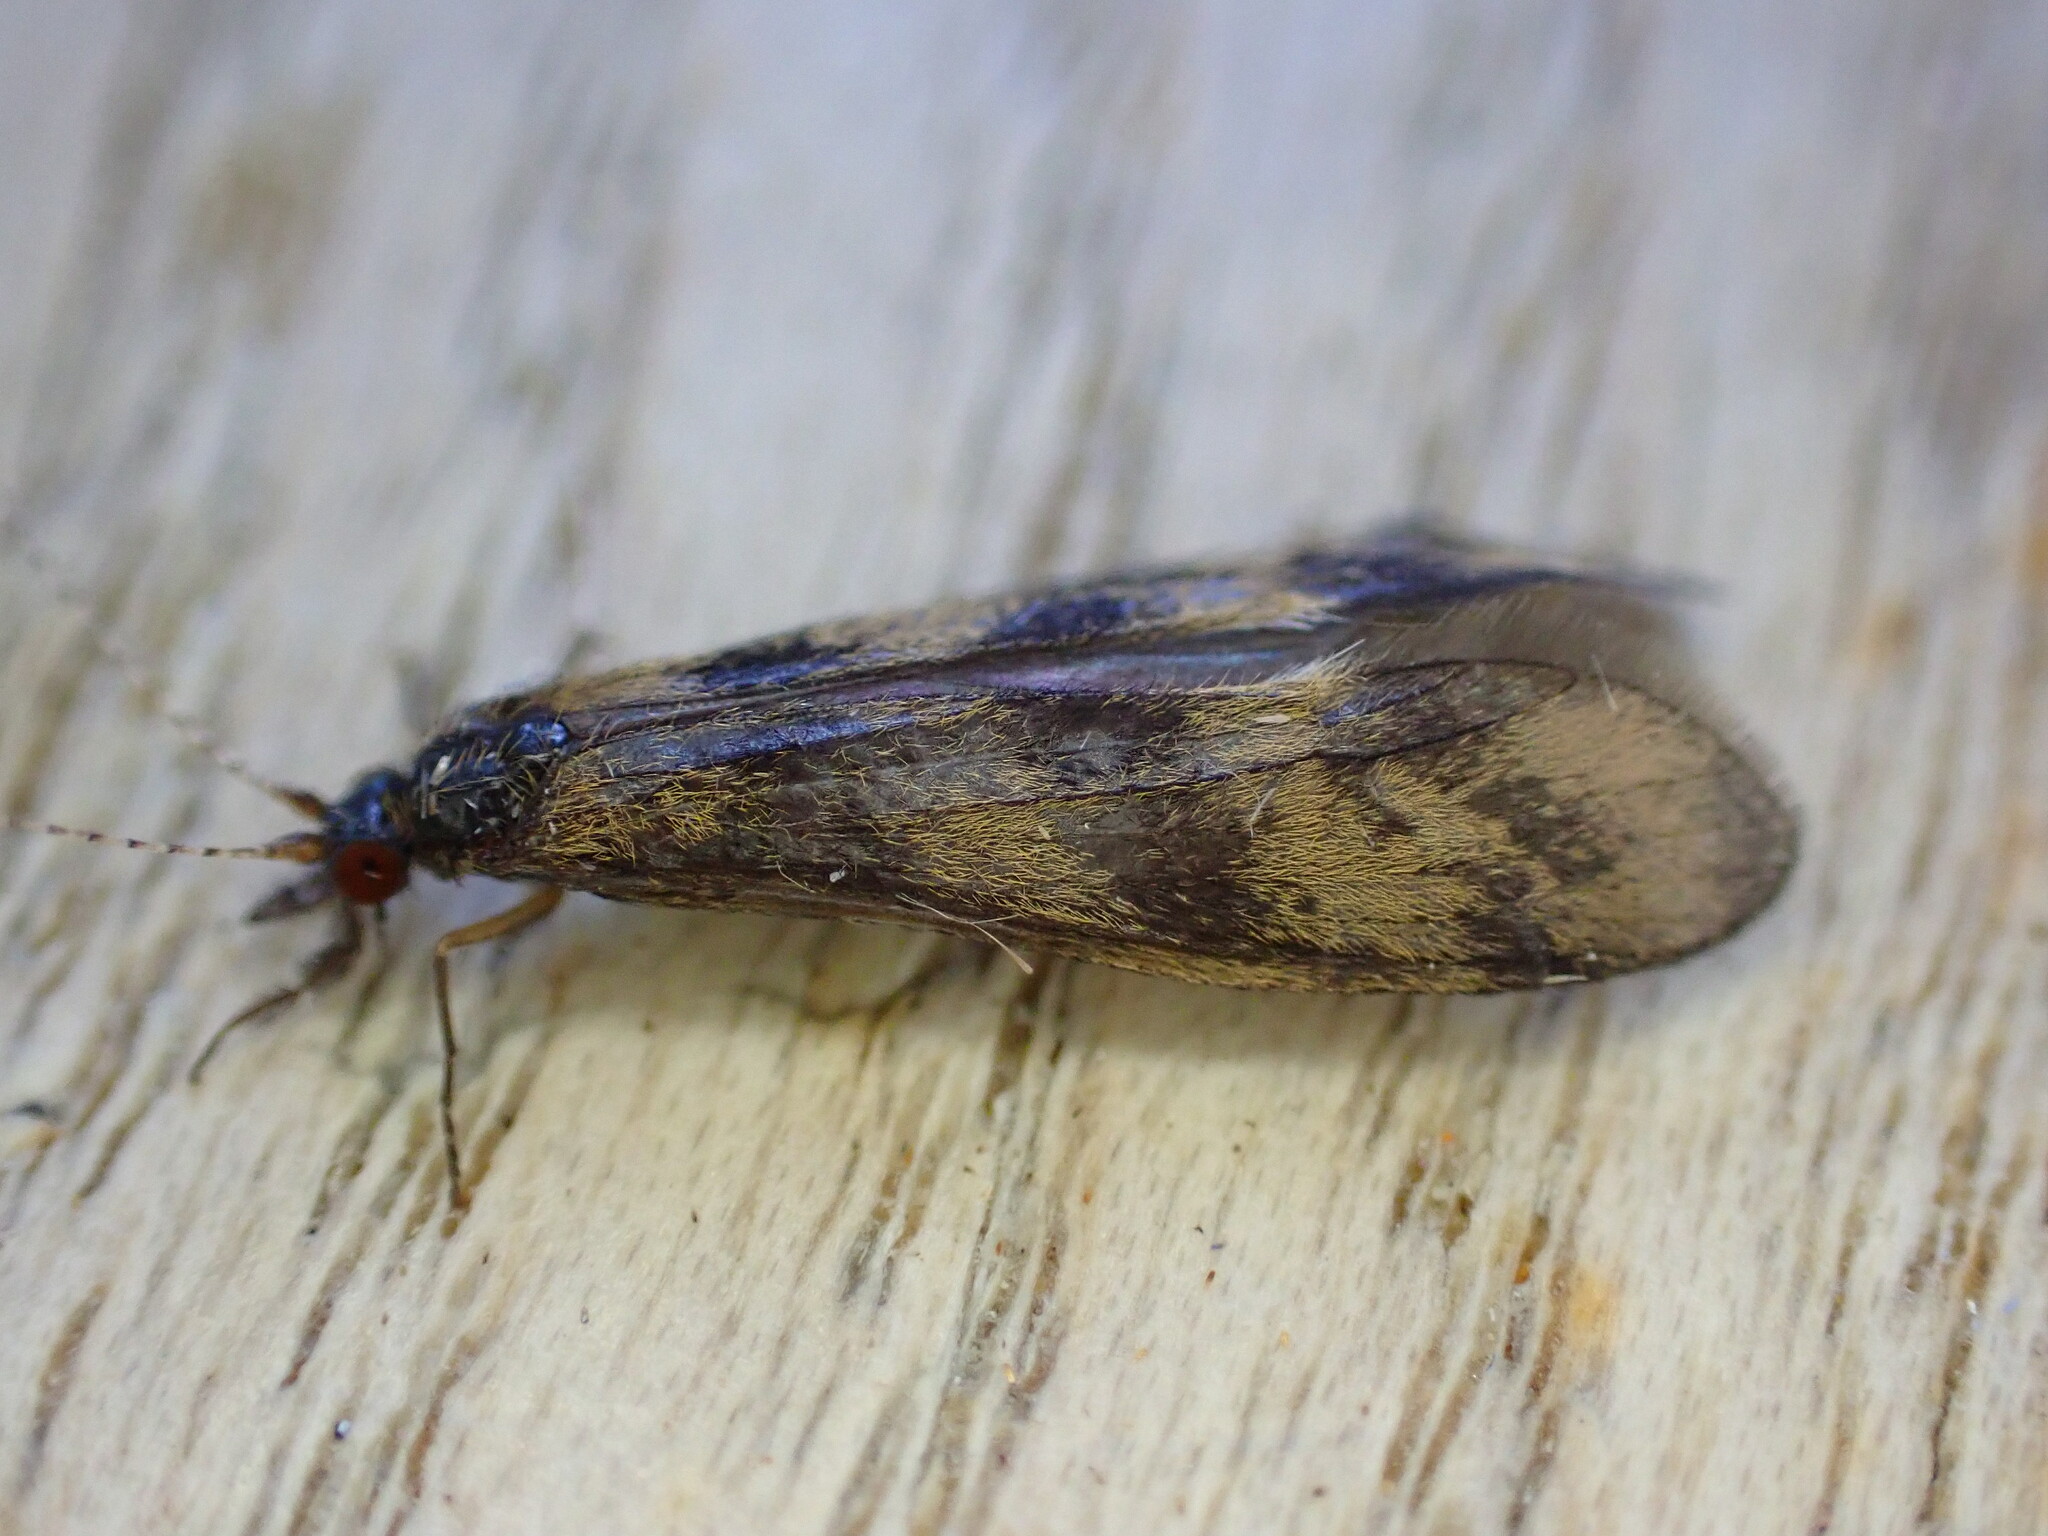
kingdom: Animalia
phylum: Arthropoda
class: Insecta
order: Trichoptera
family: Leptoceridae
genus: Mystacides
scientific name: Mystacides longicornis
